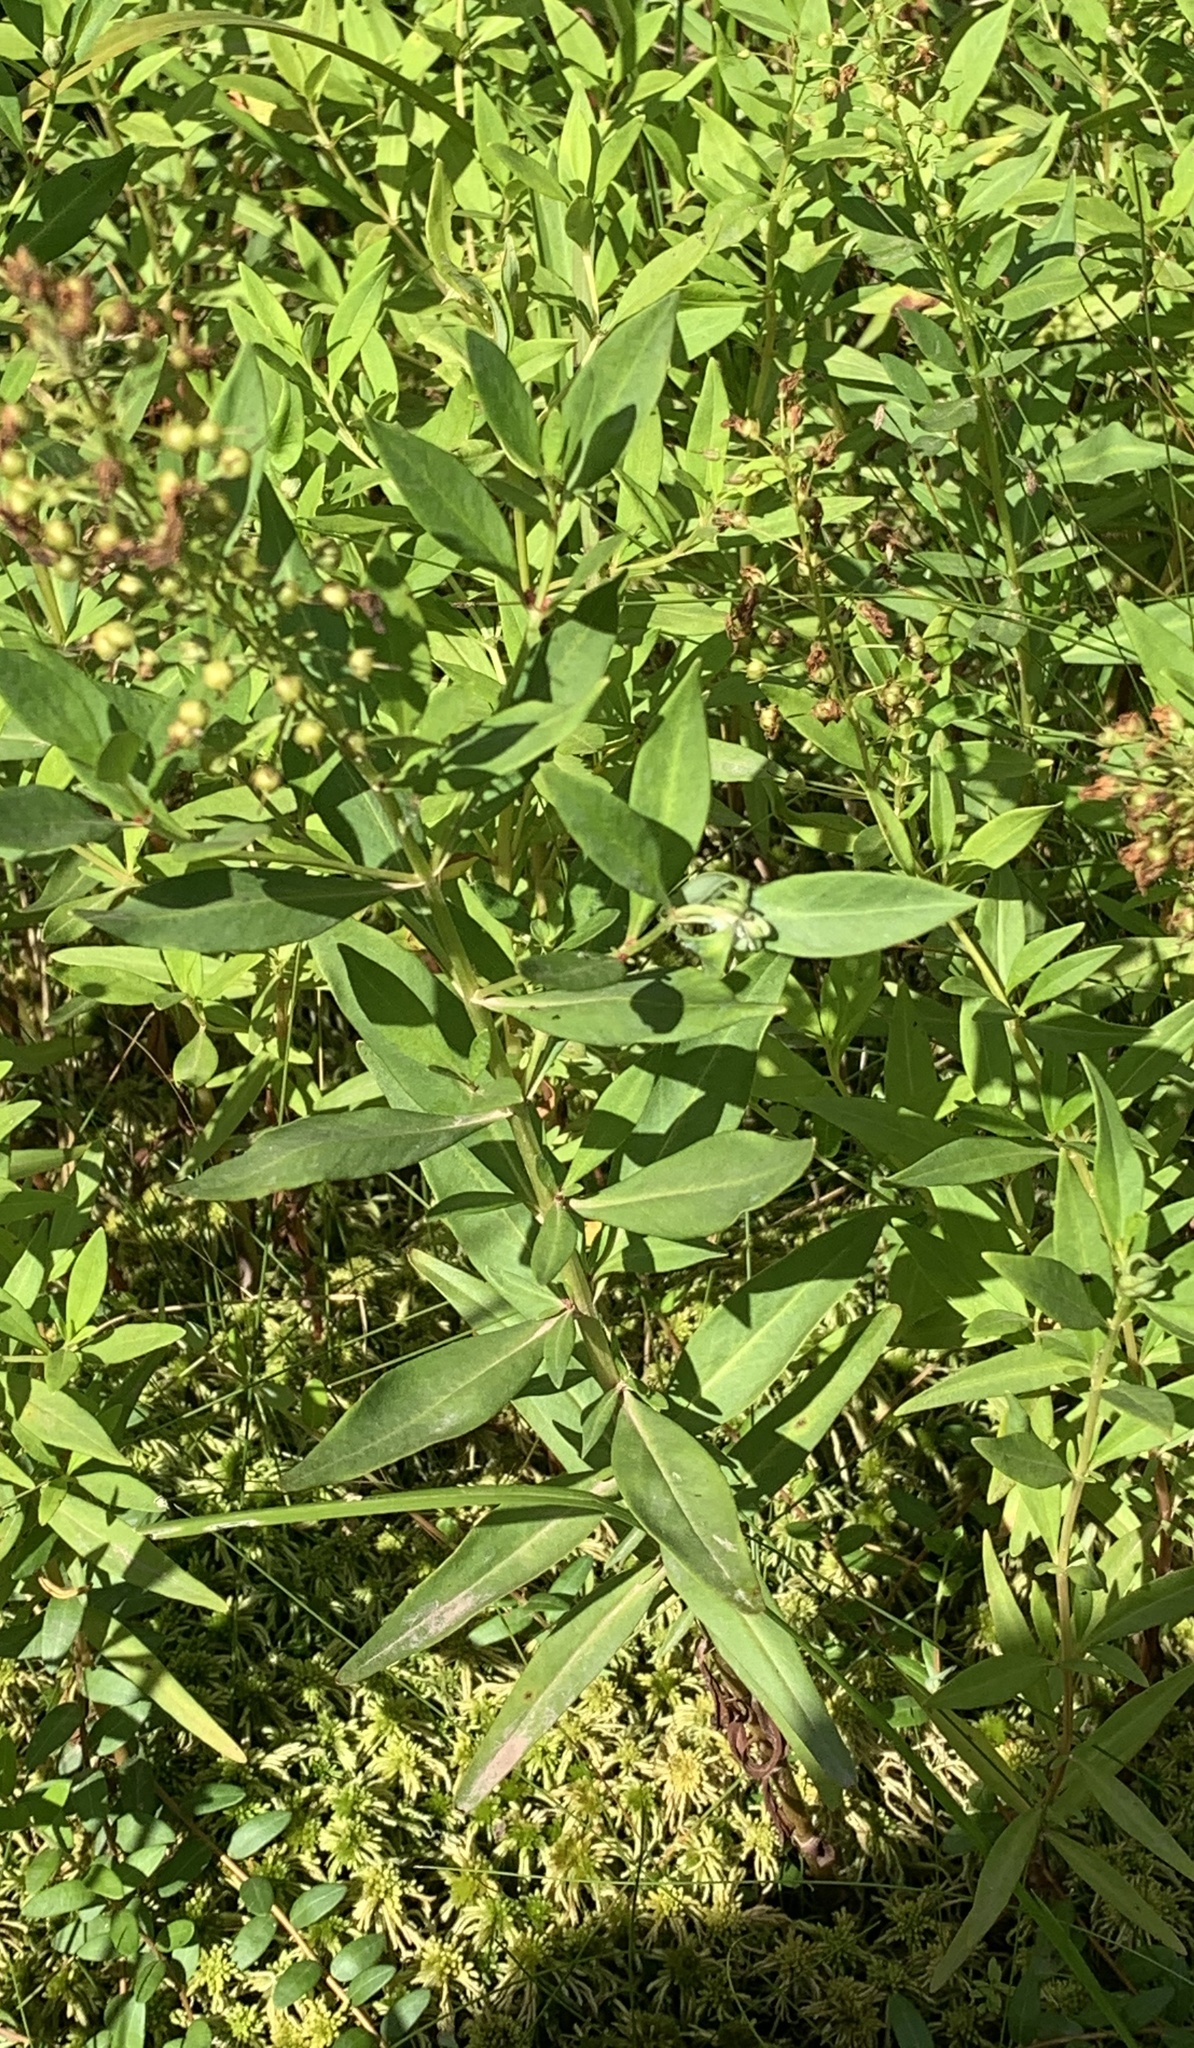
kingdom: Plantae
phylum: Tracheophyta
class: Magnoliopsida
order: Ericales
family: Primulaceae
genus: Lysimachia
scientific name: Lysimachia terrestris
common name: Lake loosestrife
